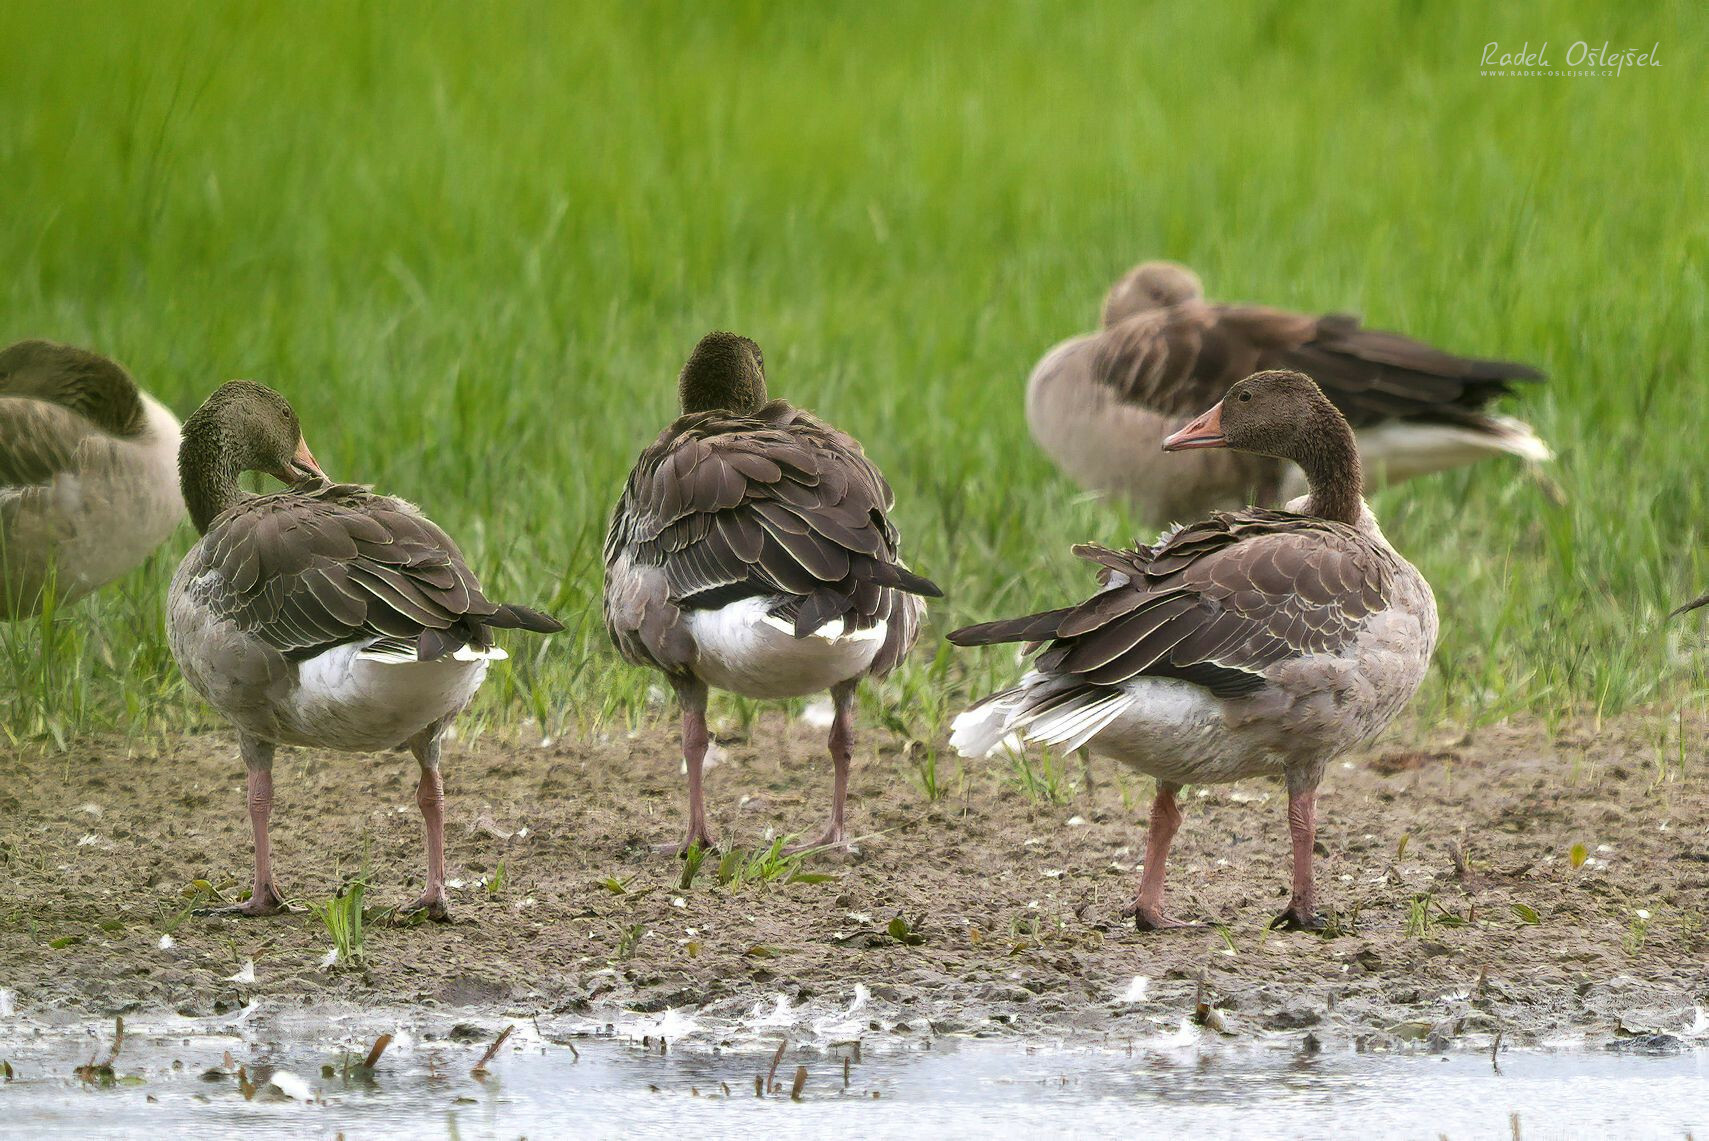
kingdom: Animalia
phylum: Chordata
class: Aves
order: Anseriformes
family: Anatidae
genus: Anser
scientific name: Anser anser
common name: Greylag goose
